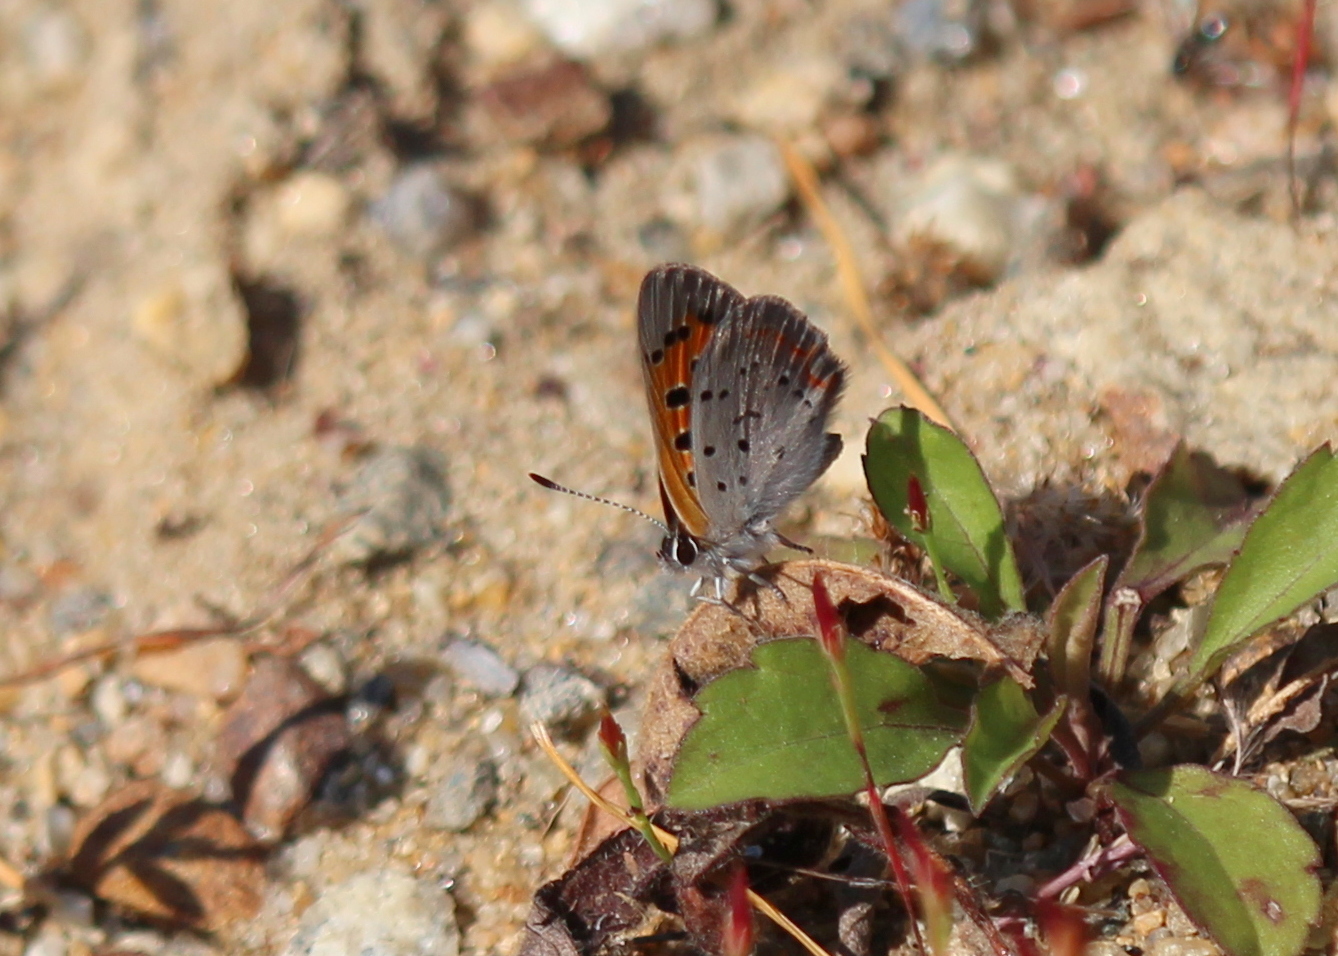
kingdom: Animalia
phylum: Arthropoda
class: Insecta
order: Lepidoptera
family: Lycaenidae
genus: Lycaena
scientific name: Lycaena hypophlaeas
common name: American copper
